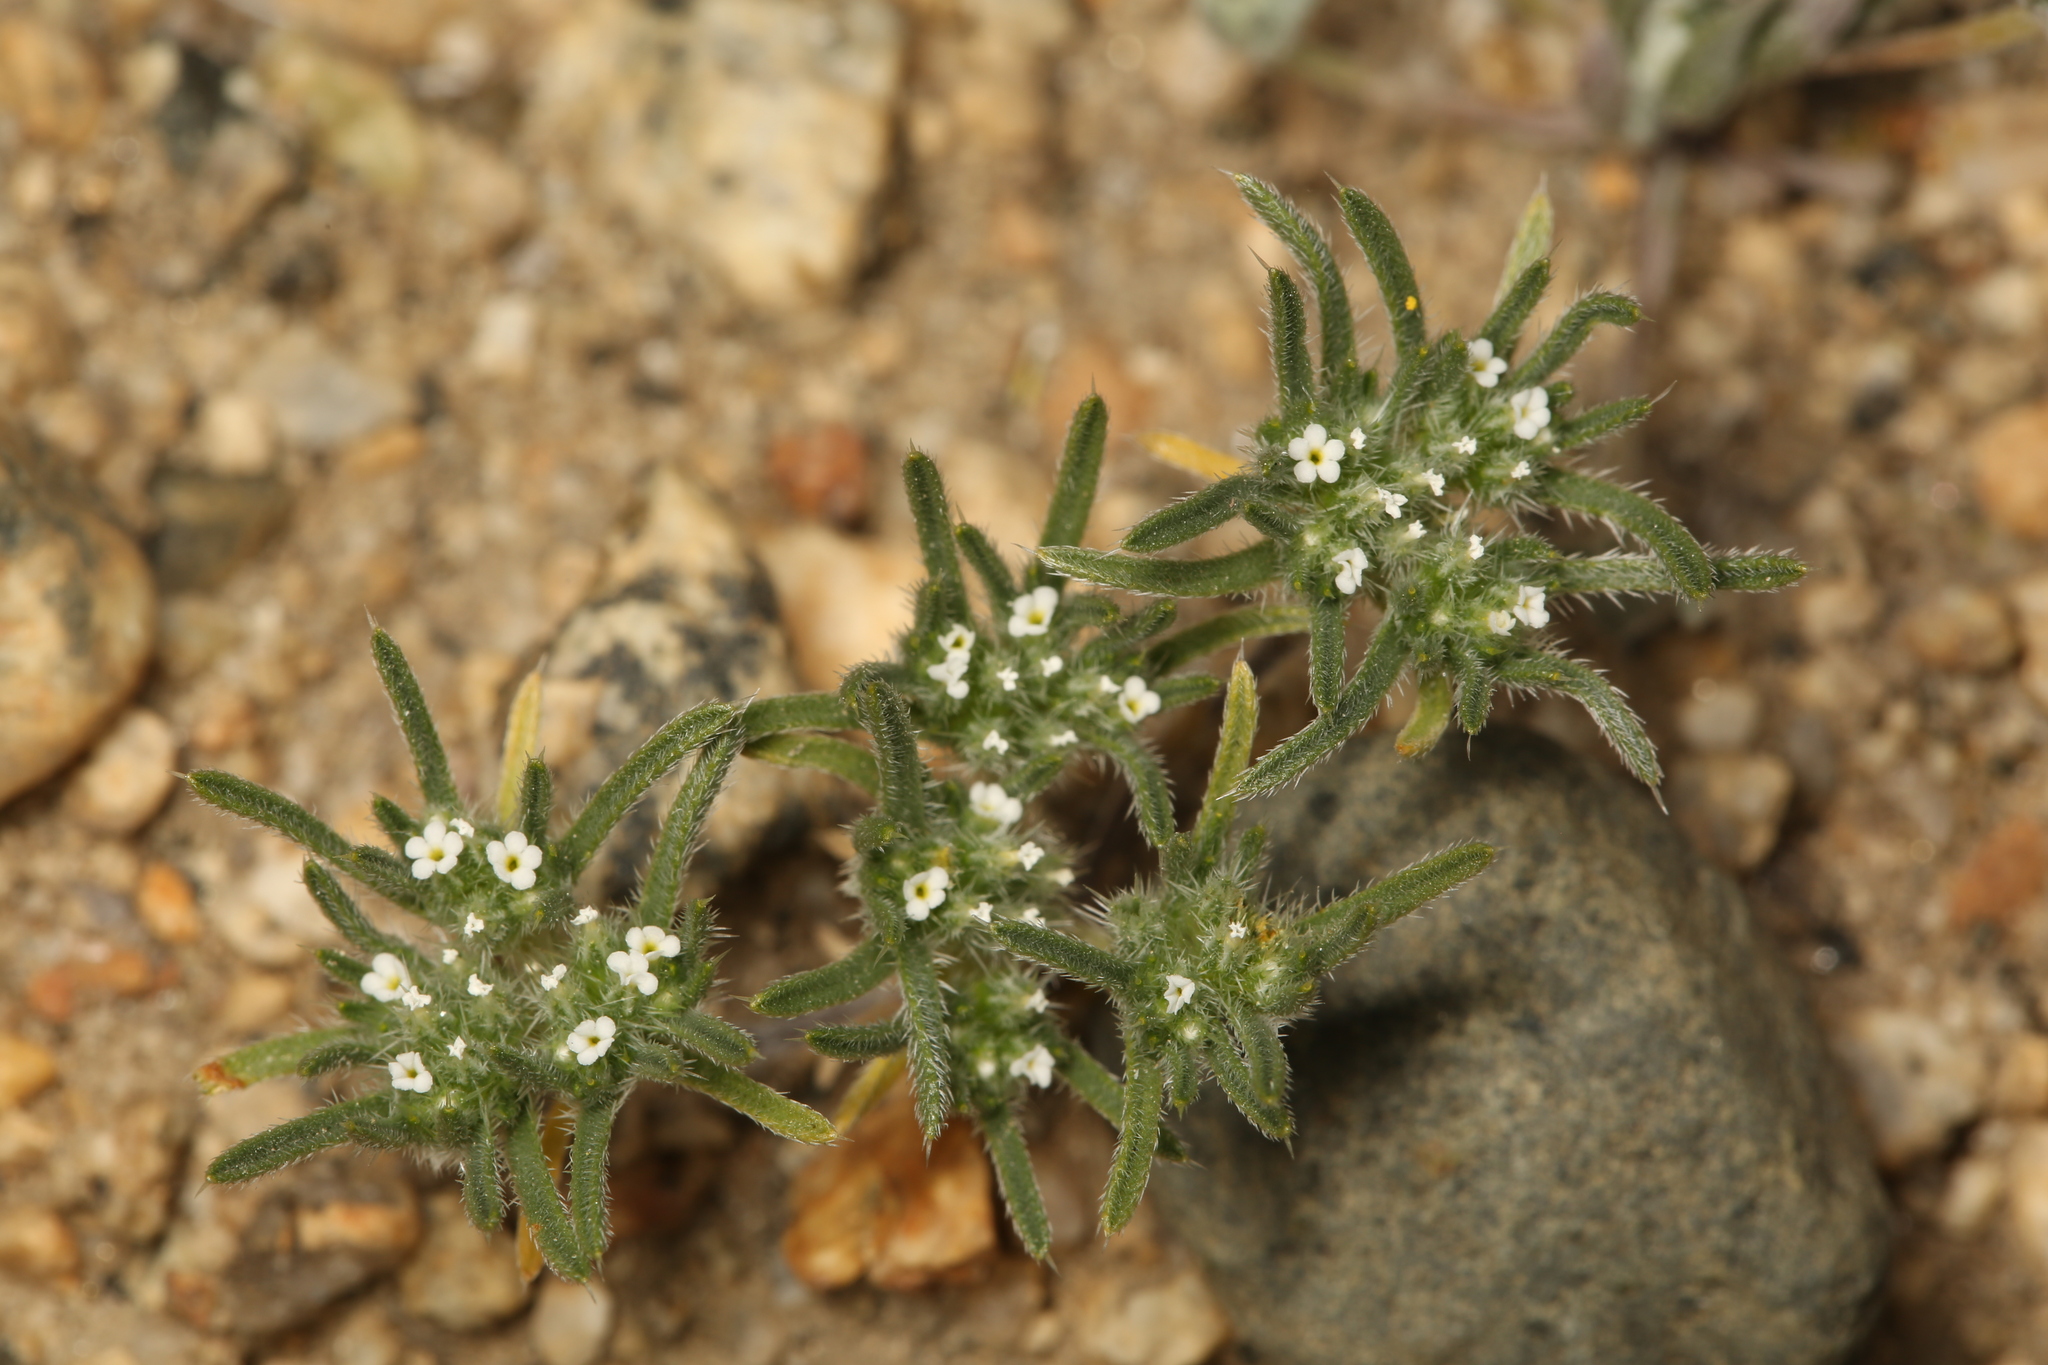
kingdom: Plantae
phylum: Tracheophyta
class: Magnoliopsida
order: Boraginales
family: Boraginaceae
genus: Greeneocharis
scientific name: Greeneocharis circumscissa
